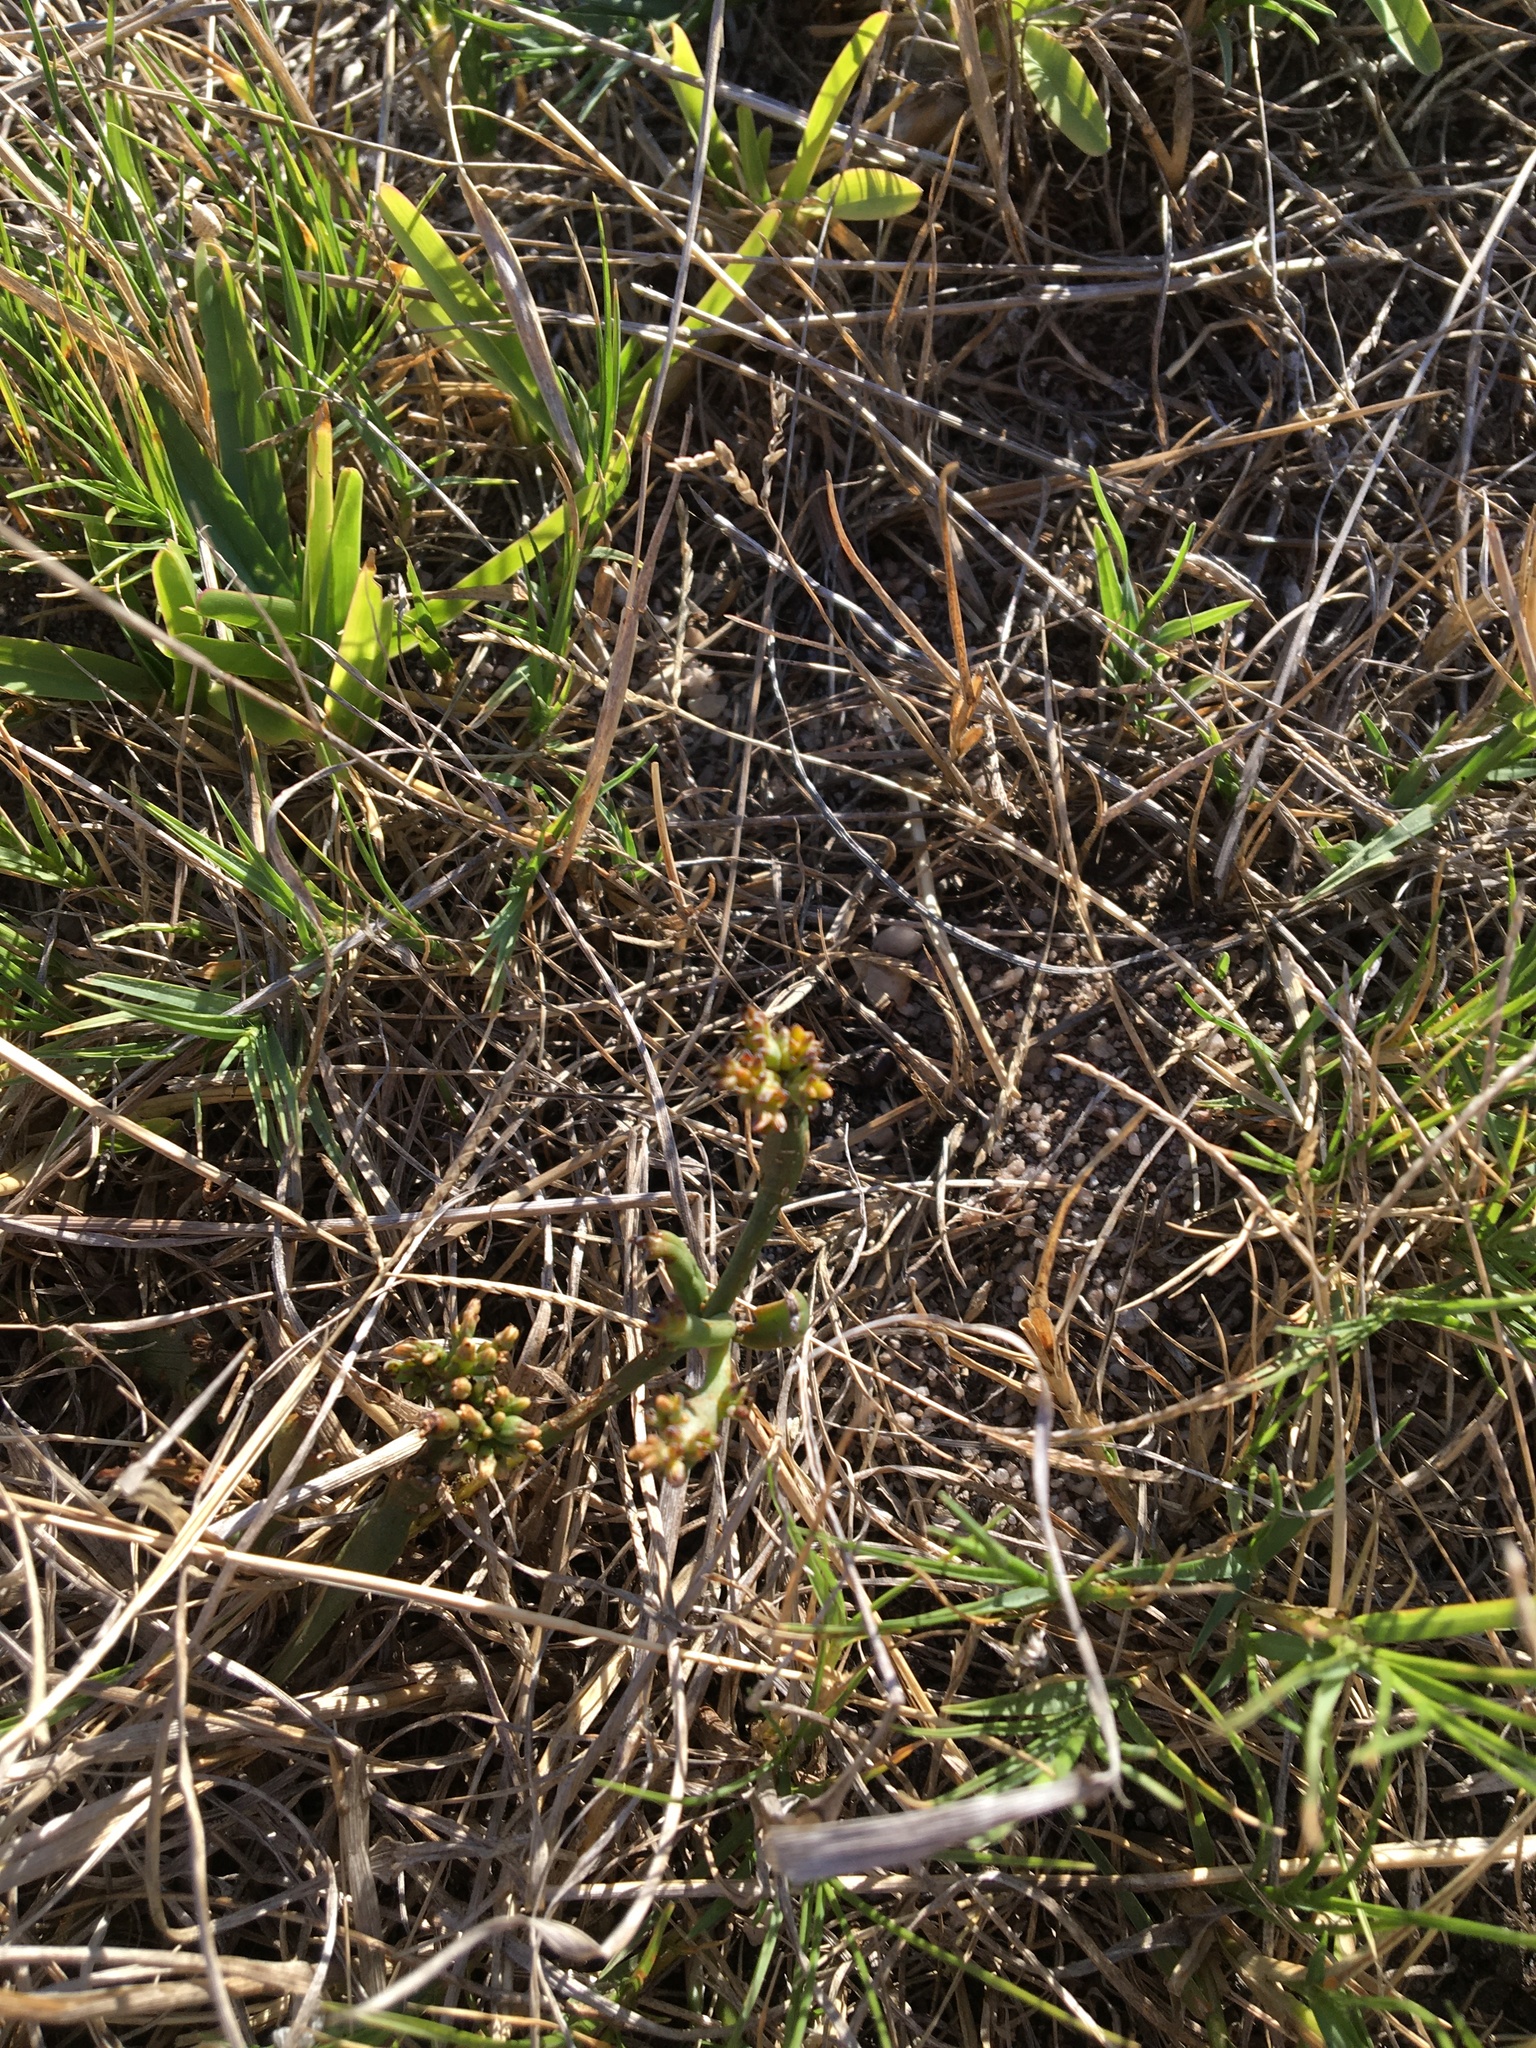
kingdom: Plantae
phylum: Tracheophyta
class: Magnoliopsida
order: Santalales
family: Thesiaceae
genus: Thesium
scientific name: Thesium frisea
